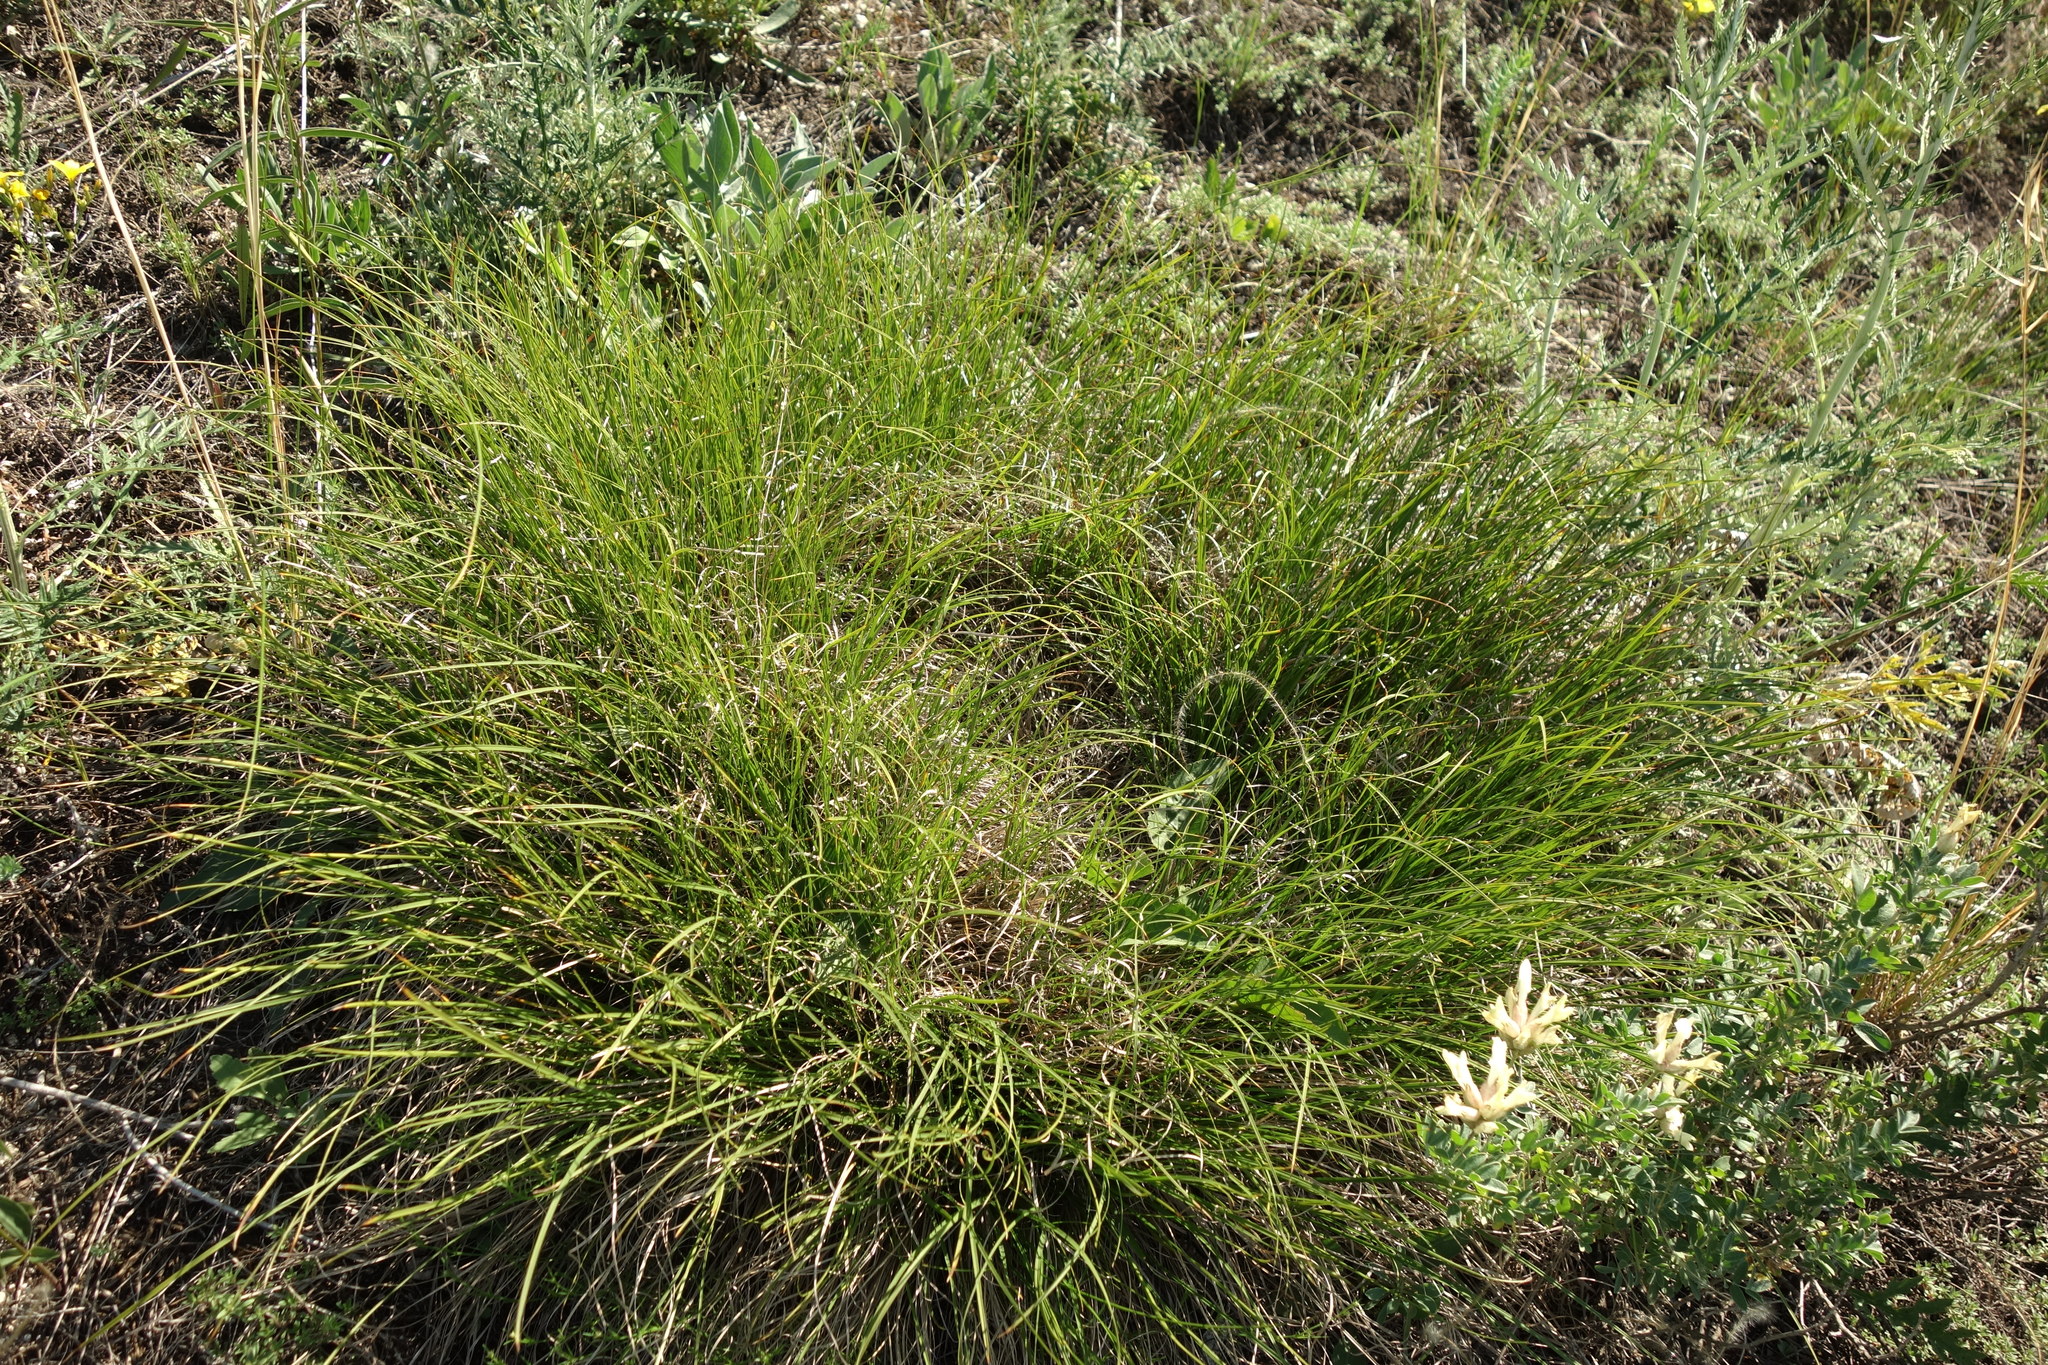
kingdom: Plantae
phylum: Tracheophyta
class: Liliopsida
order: Poales
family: Cyperaceae
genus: Carex
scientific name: Carex humilis
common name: Dwarf sedge
